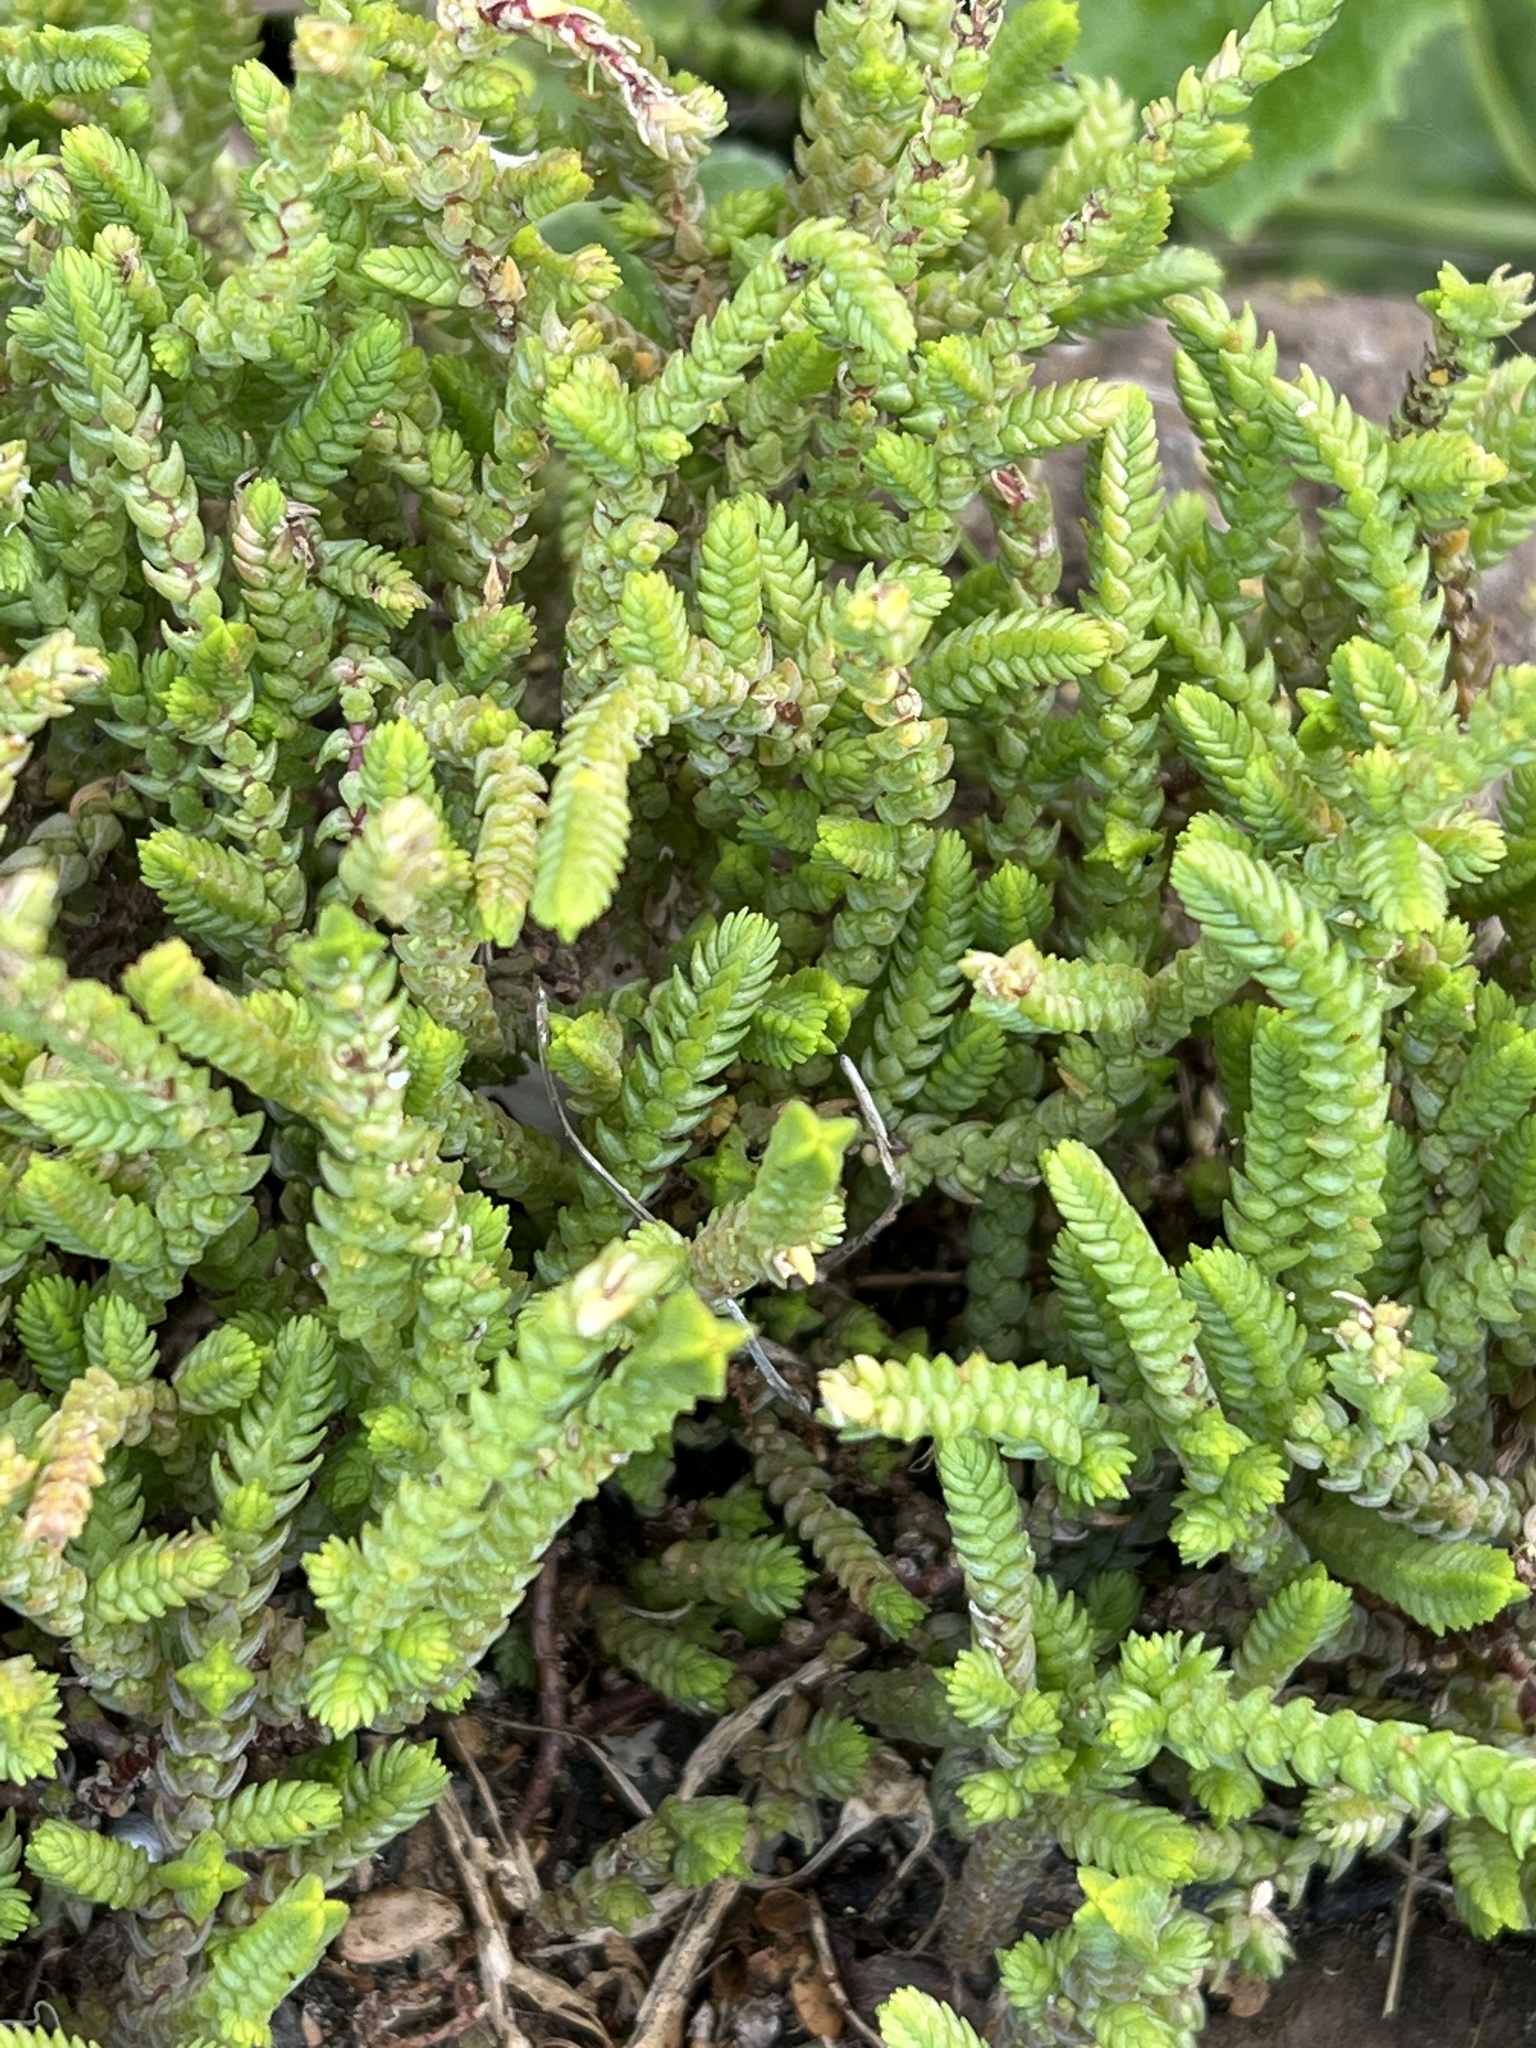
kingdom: Plantae
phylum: Tracheophyta
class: Magnoliopsida
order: Saxifragales
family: Crassulaceae
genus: Crassula
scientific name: Crassula muscosa
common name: Toy-cypress
